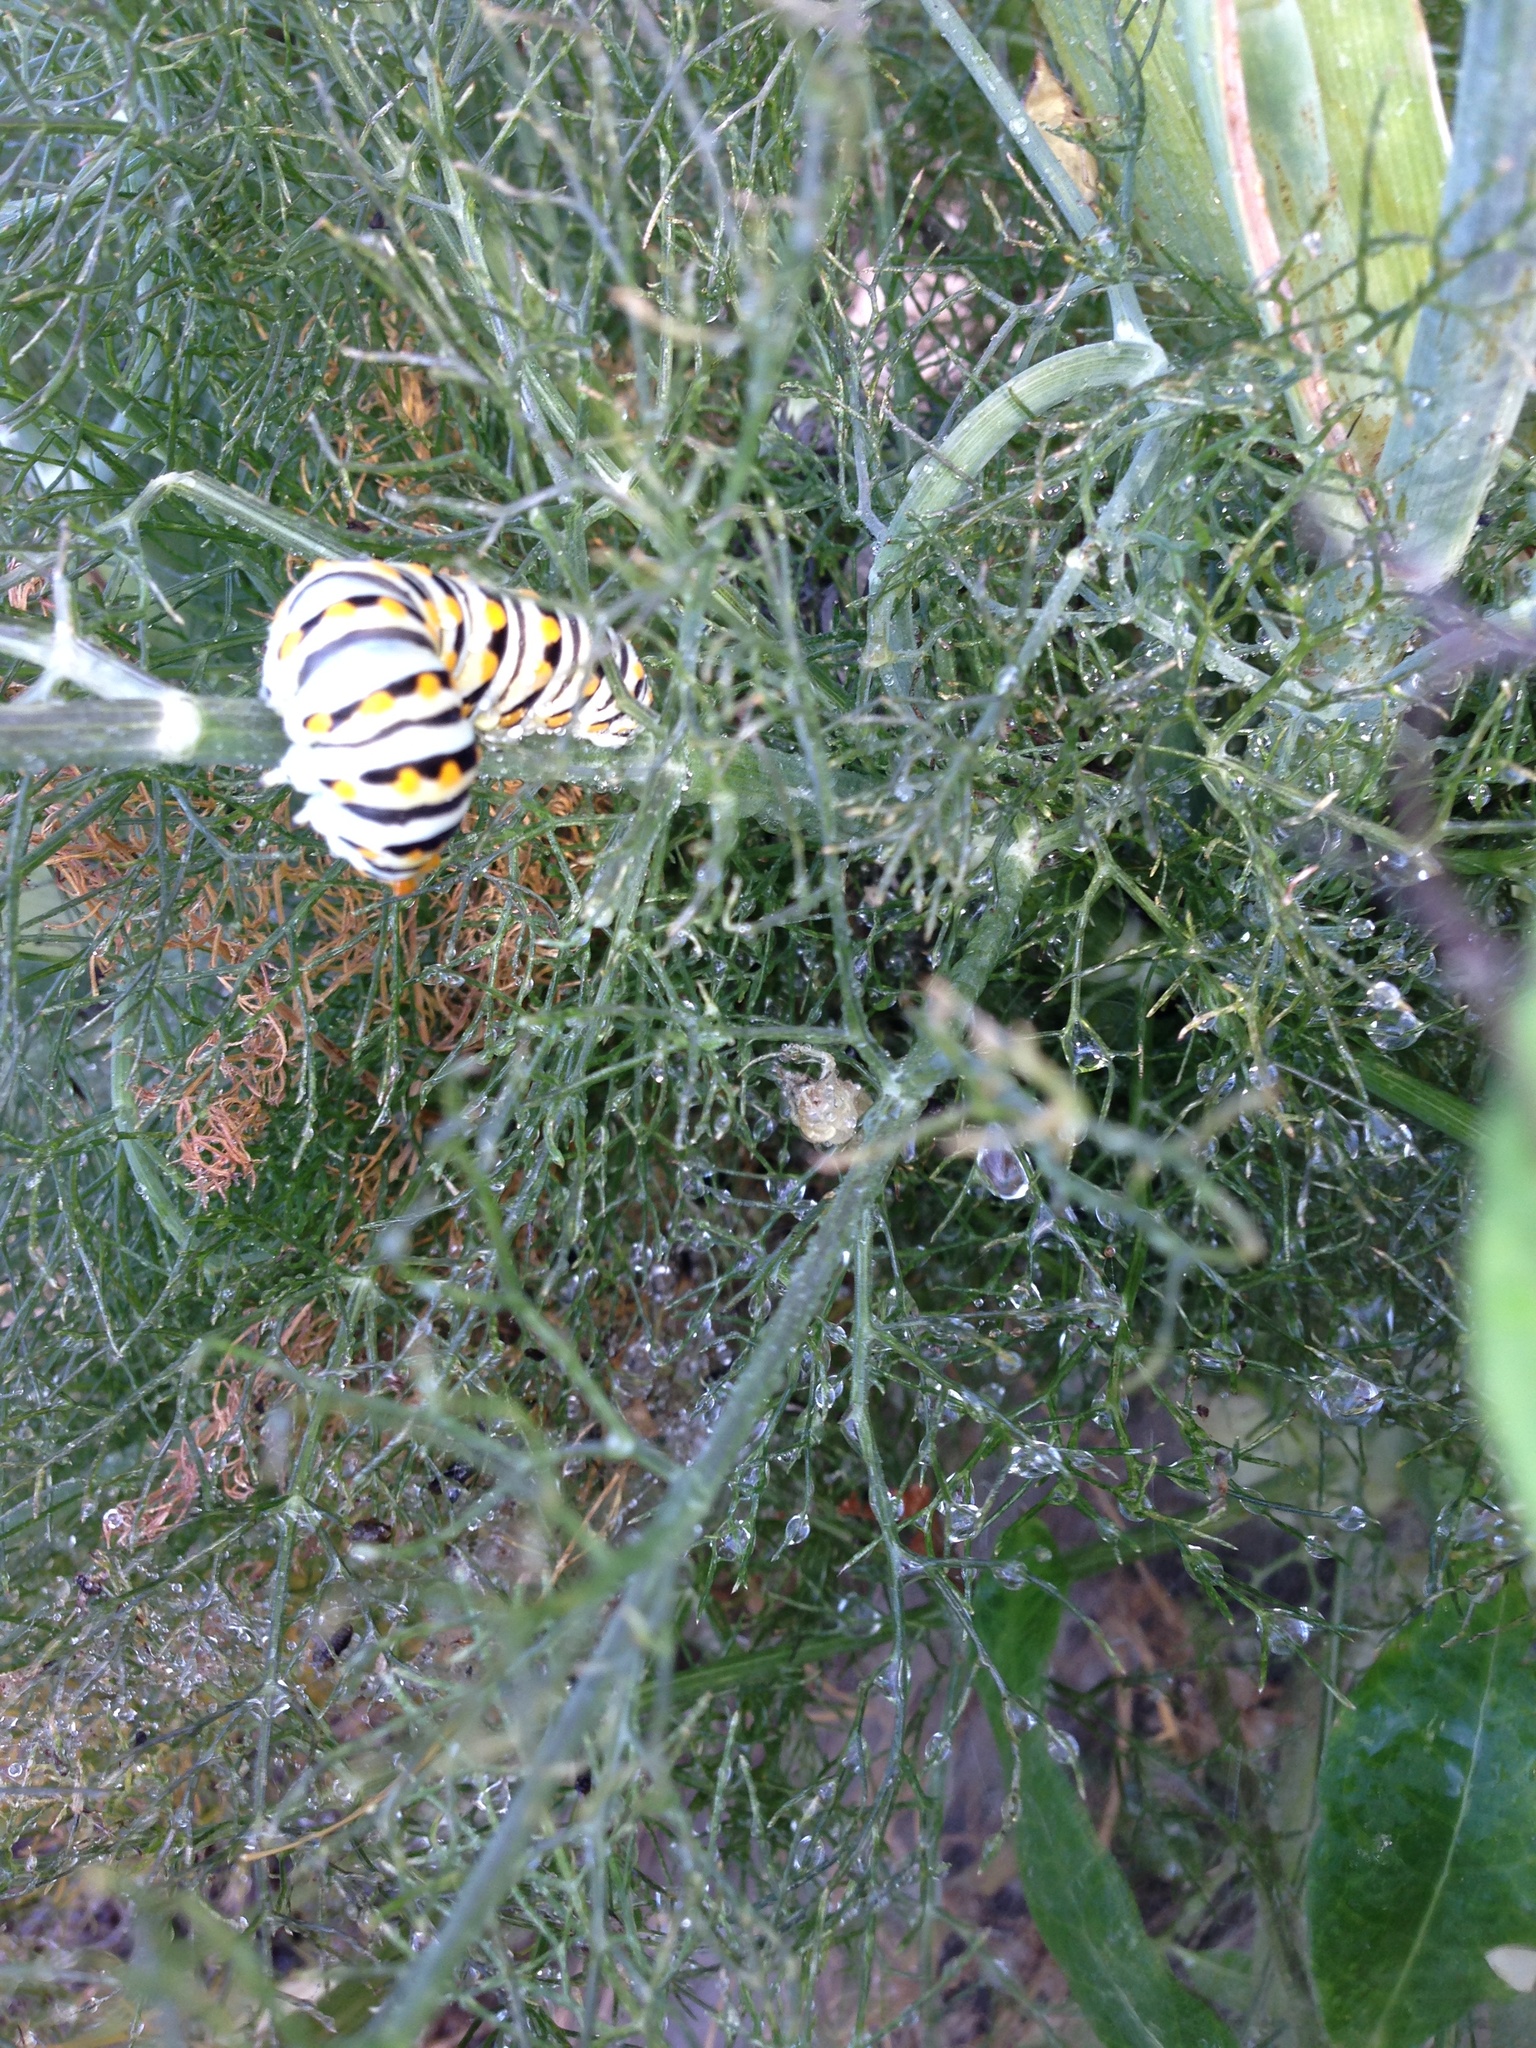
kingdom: Animalia
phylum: Arthropoda
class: Insecta
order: Lepidoptera
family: Papilionidae
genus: Papilio
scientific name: Papilio polyxenes
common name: Black swallowtail
